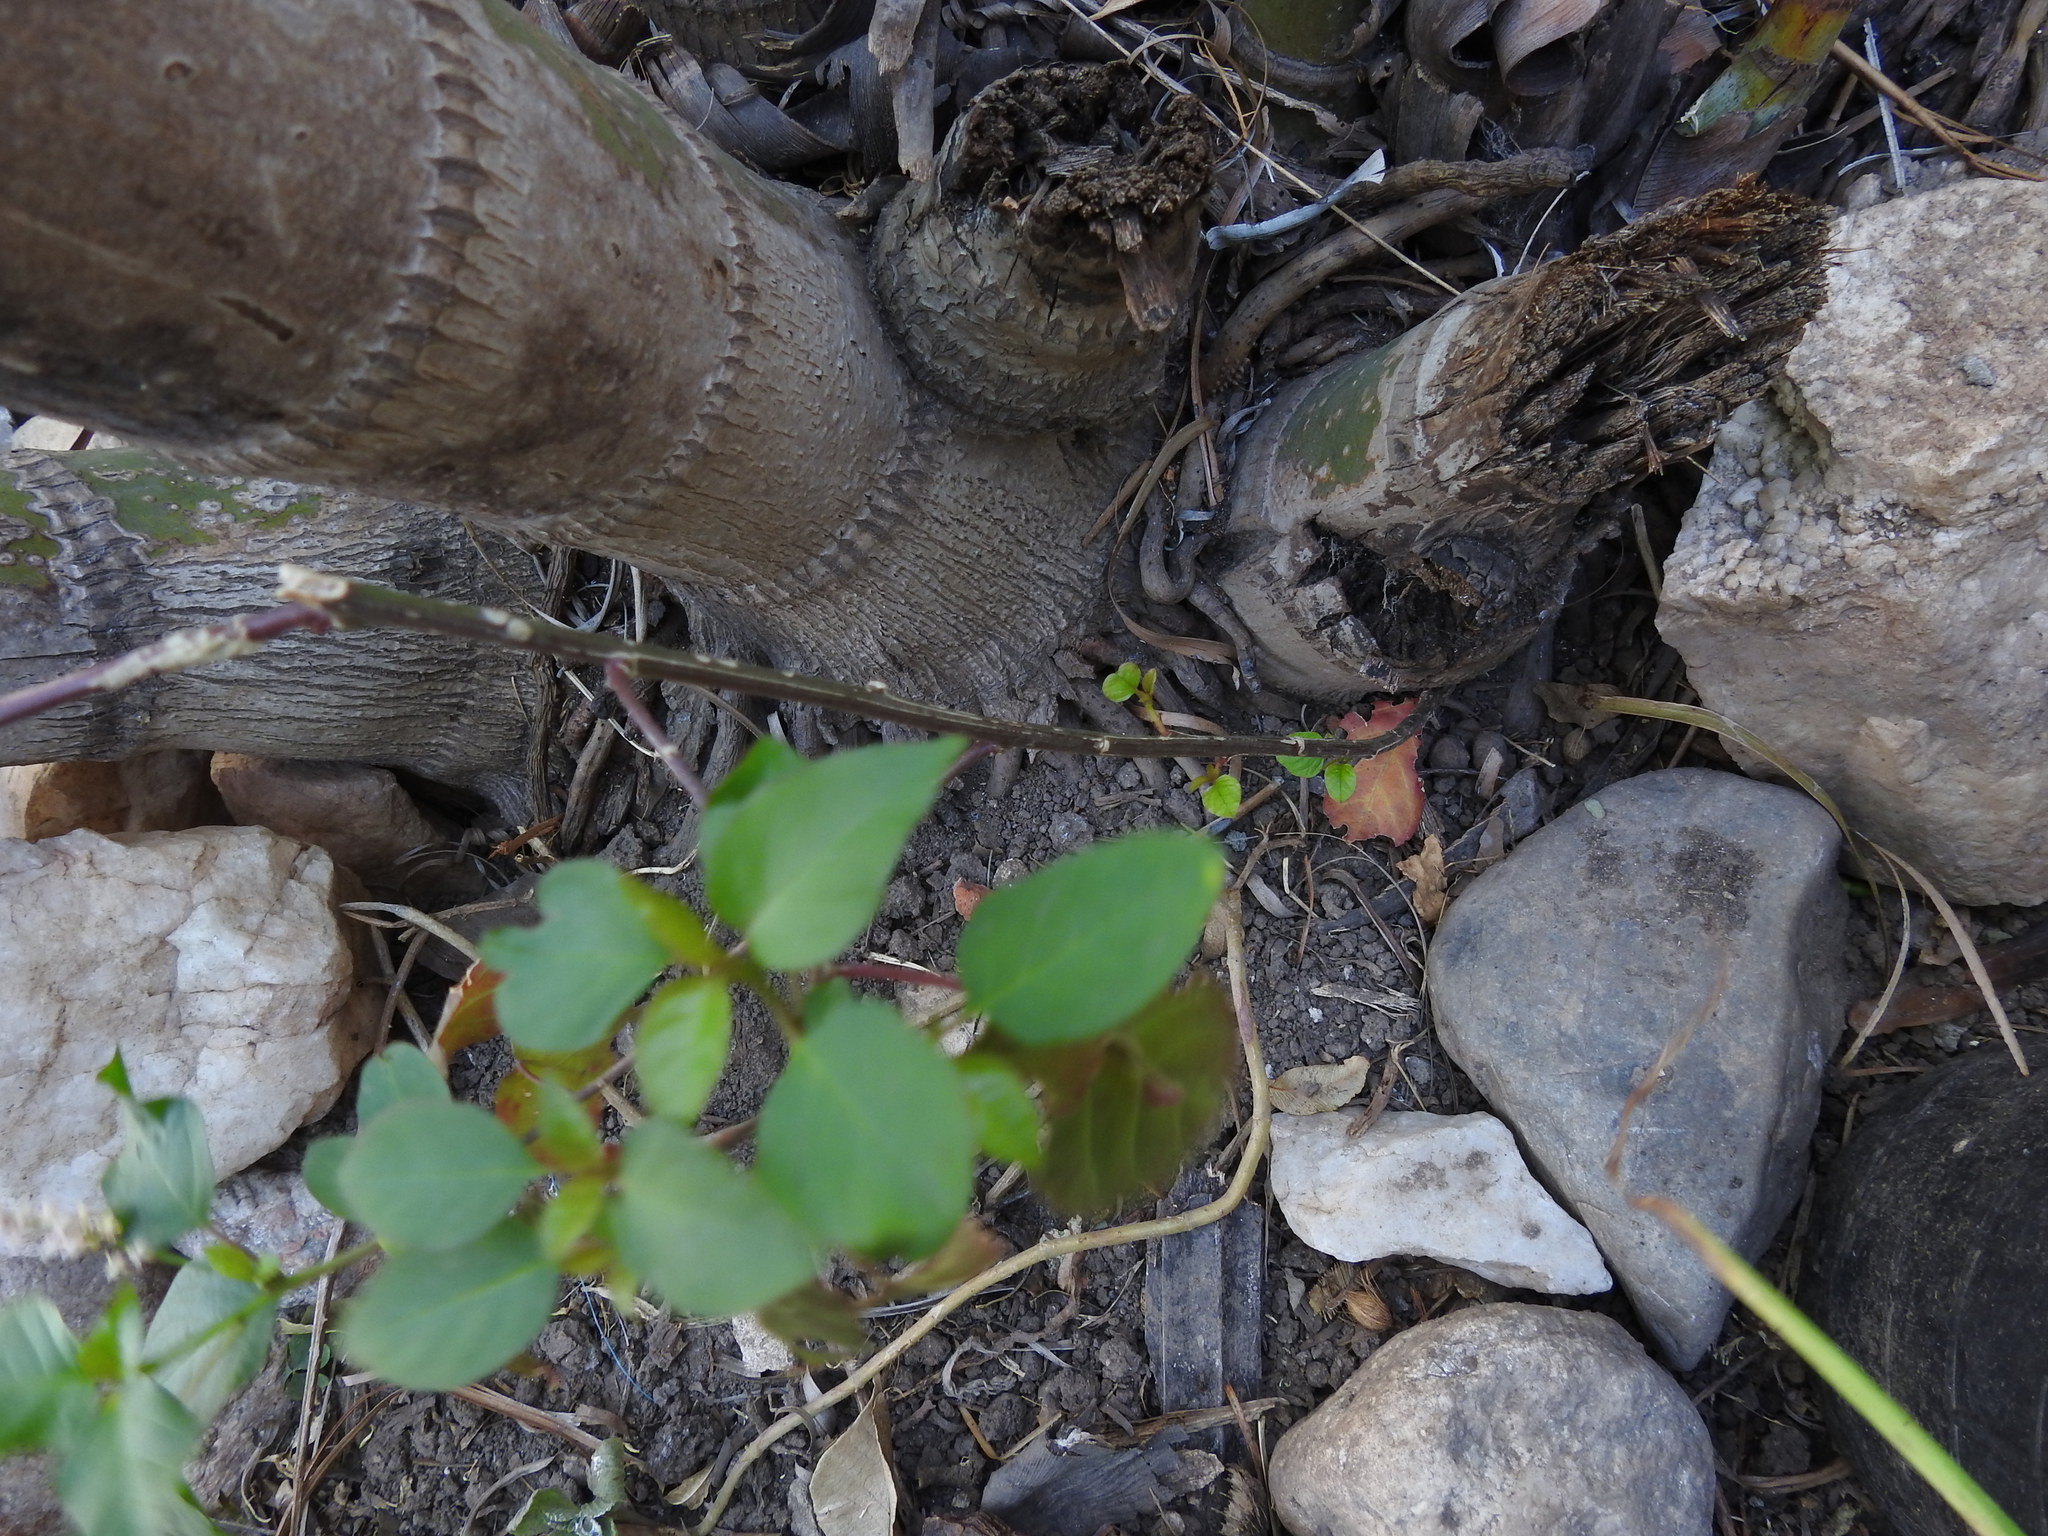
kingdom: Plantae
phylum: Tracheophyta
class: Magnoliopsida
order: Caryophyllales
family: Phytolaccaceae
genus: Rivina
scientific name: Rivina humilis
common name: Rougeplant
